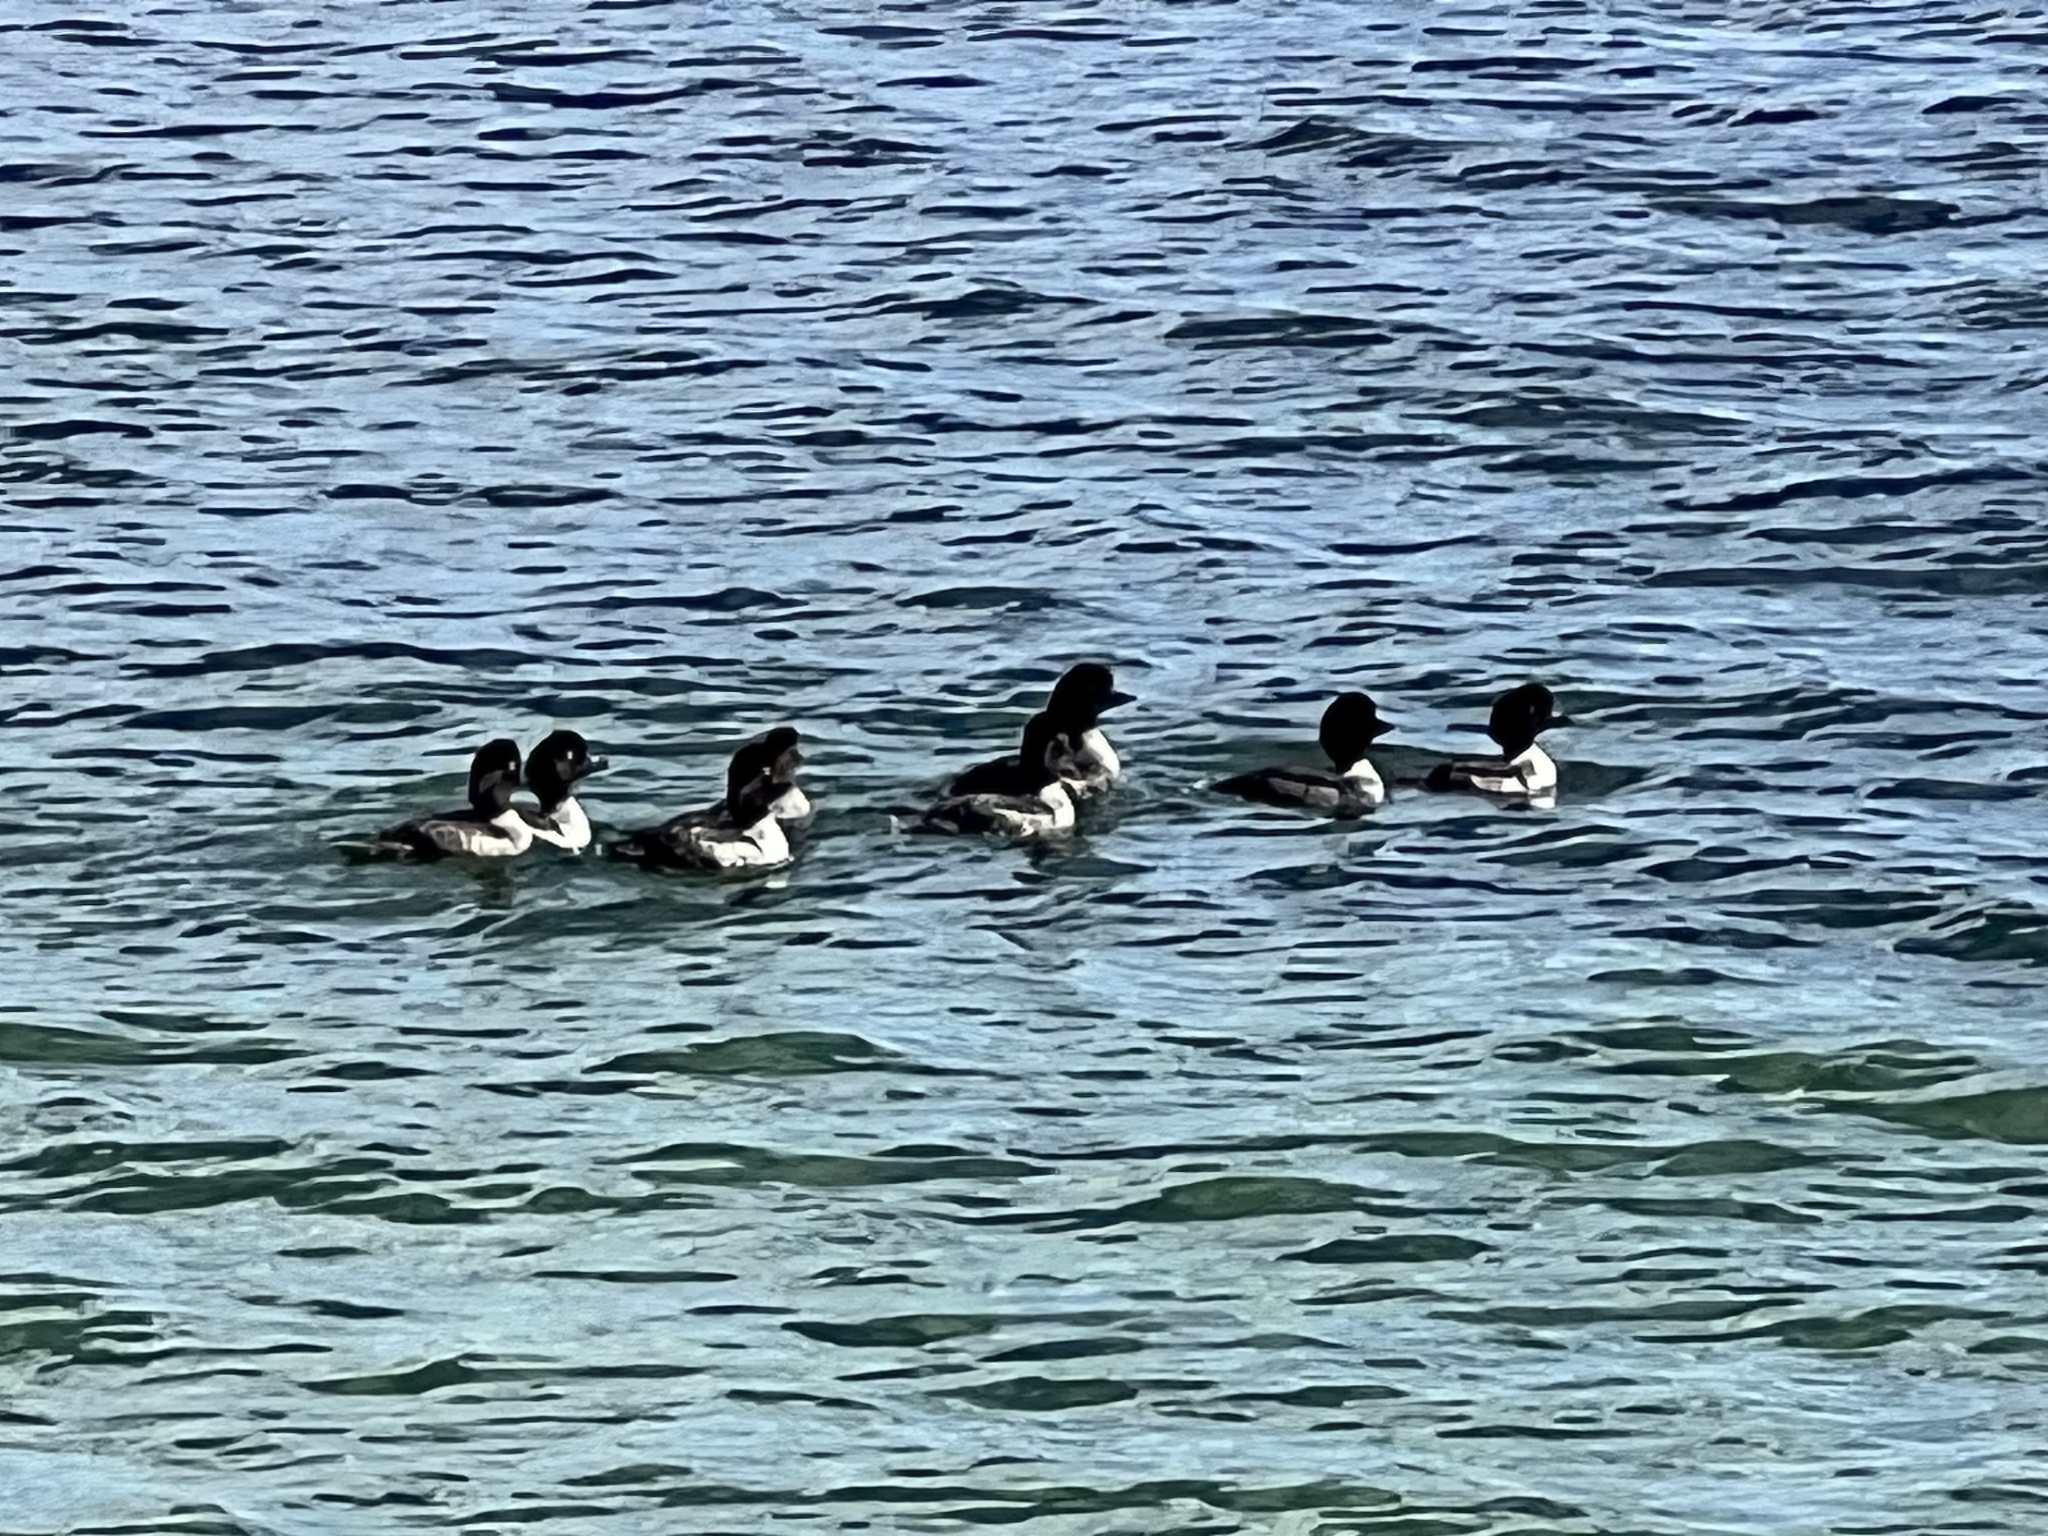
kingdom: Animalia
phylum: Chordata
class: Aves
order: Anseriformes
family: Anatidae
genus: Bucephala
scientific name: Bucephala islandica
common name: Barrow's goldeneye
